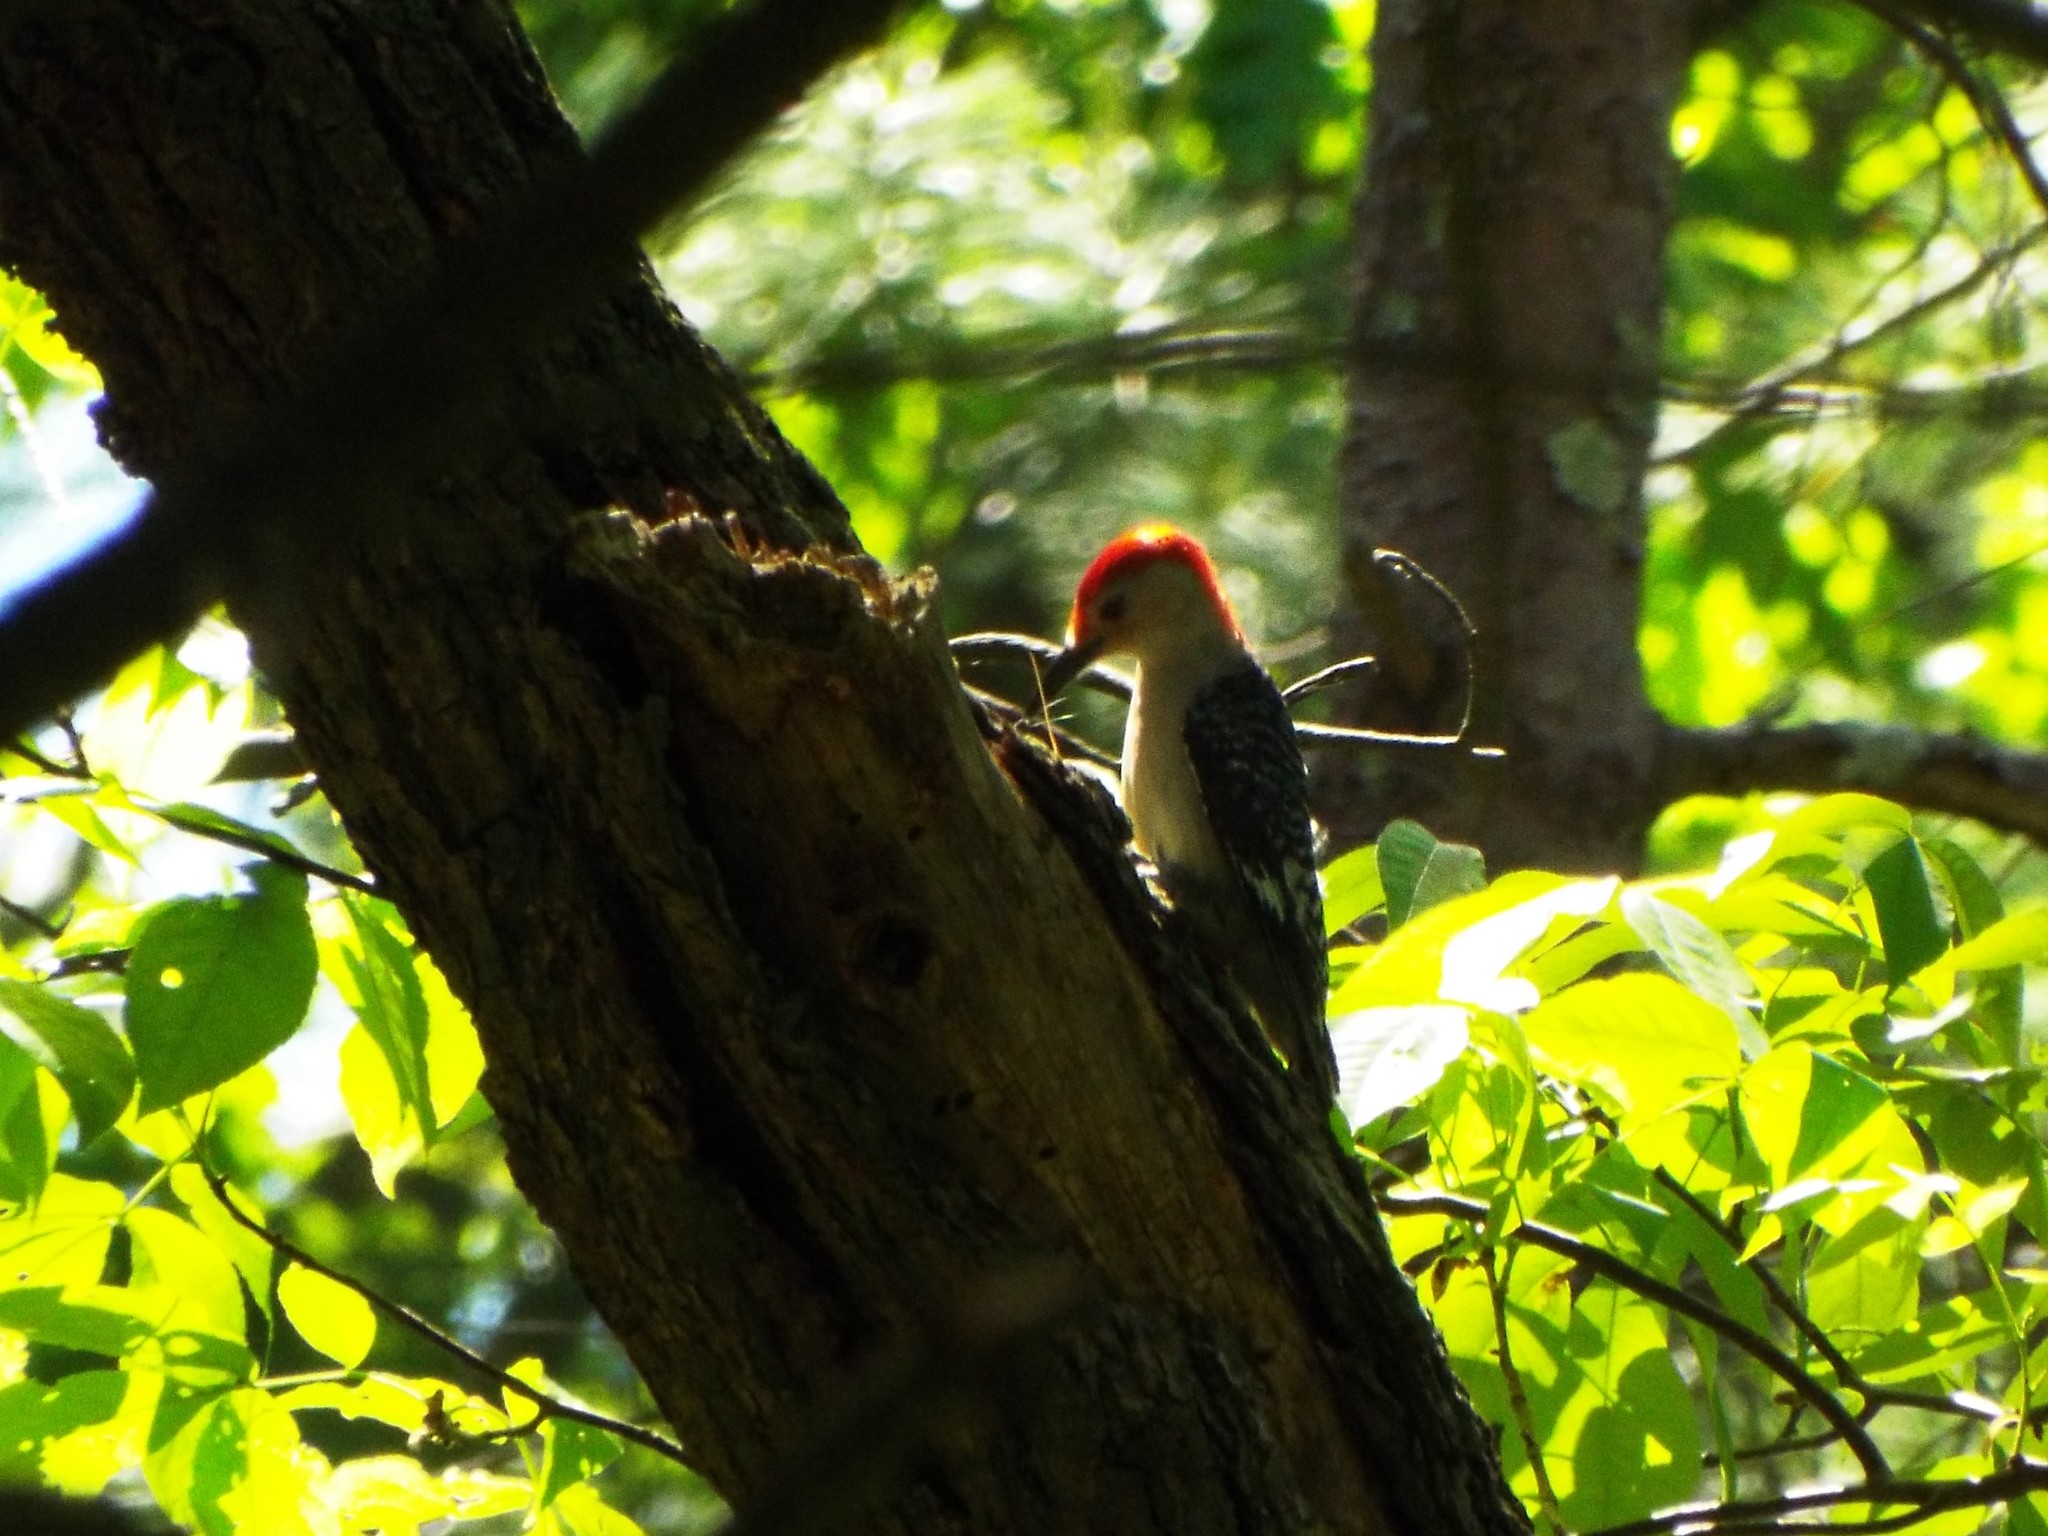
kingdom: Animalia
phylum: Chordata
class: Aves
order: Piciformes
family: Picidae
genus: Melanerpes
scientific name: Melanerpes carolinus
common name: Red-bellied woodpecker
